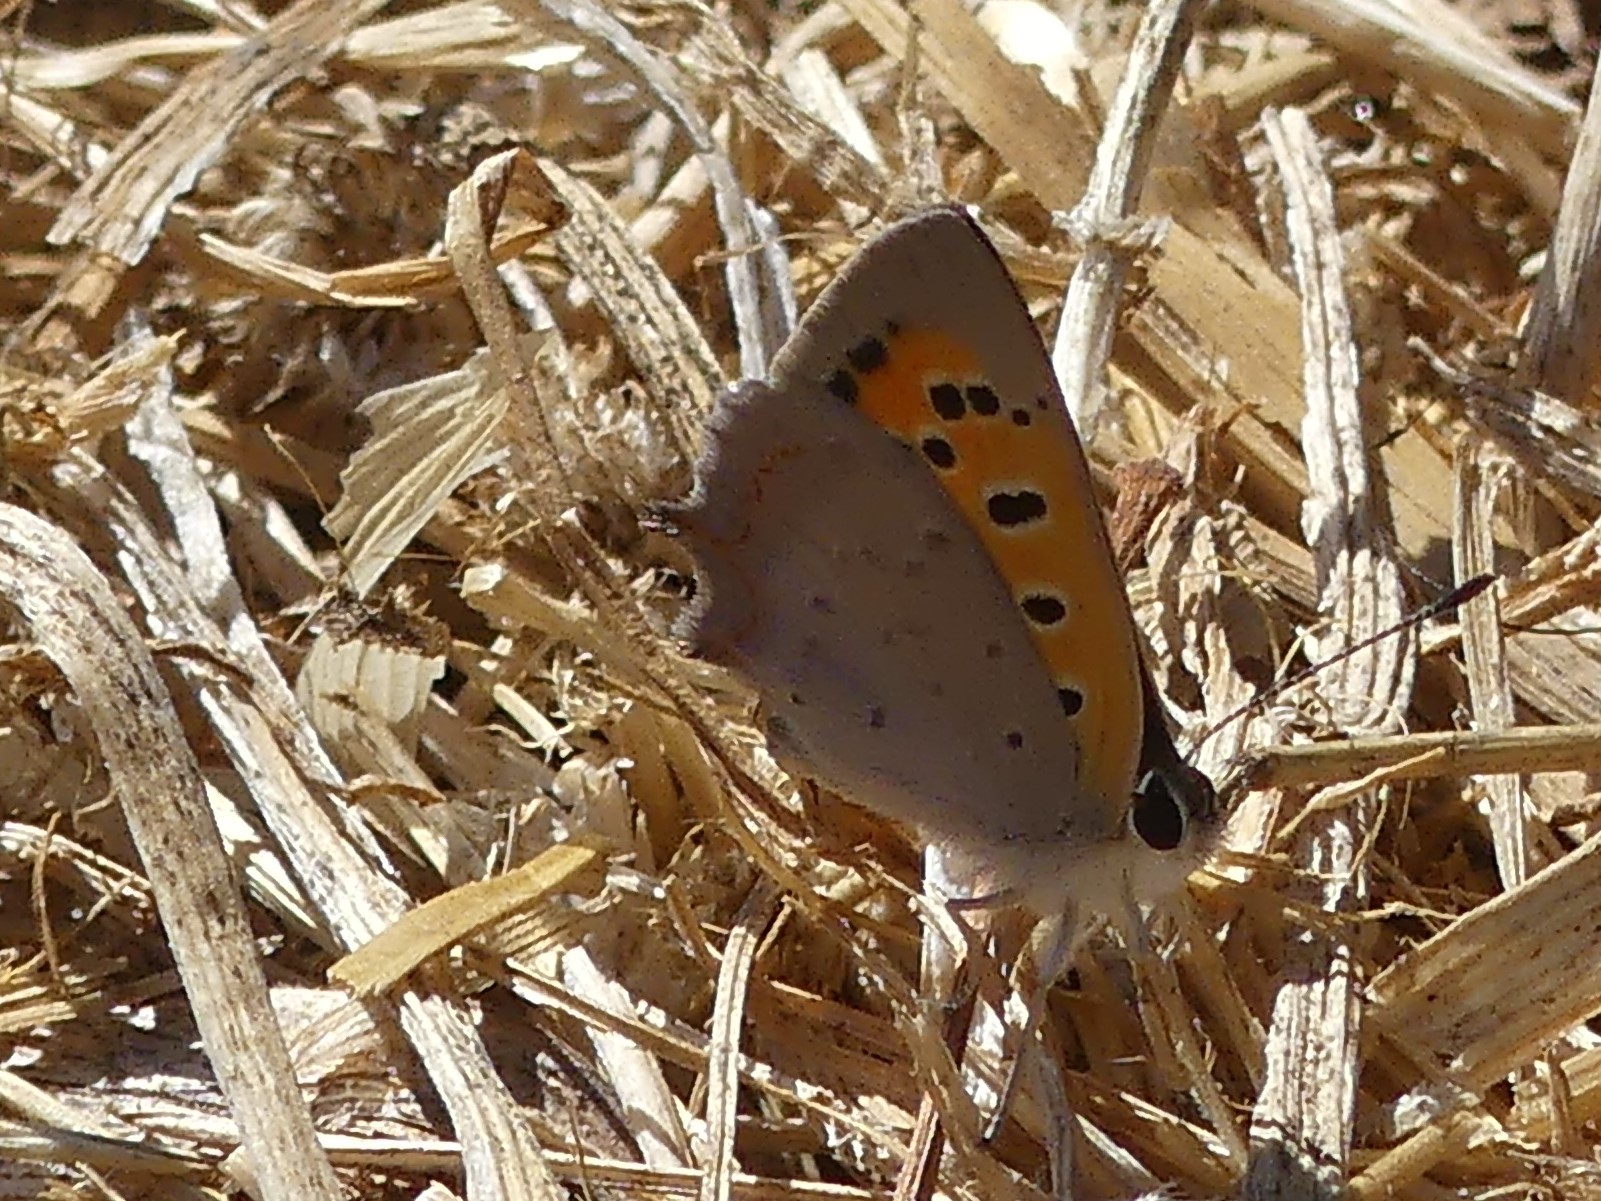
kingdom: Animalia
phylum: Arthropoda
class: Insecta
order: Lepidoptera
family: Lycaenidae
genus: Lycaena
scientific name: Lycaena phlaeas
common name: Small copper
